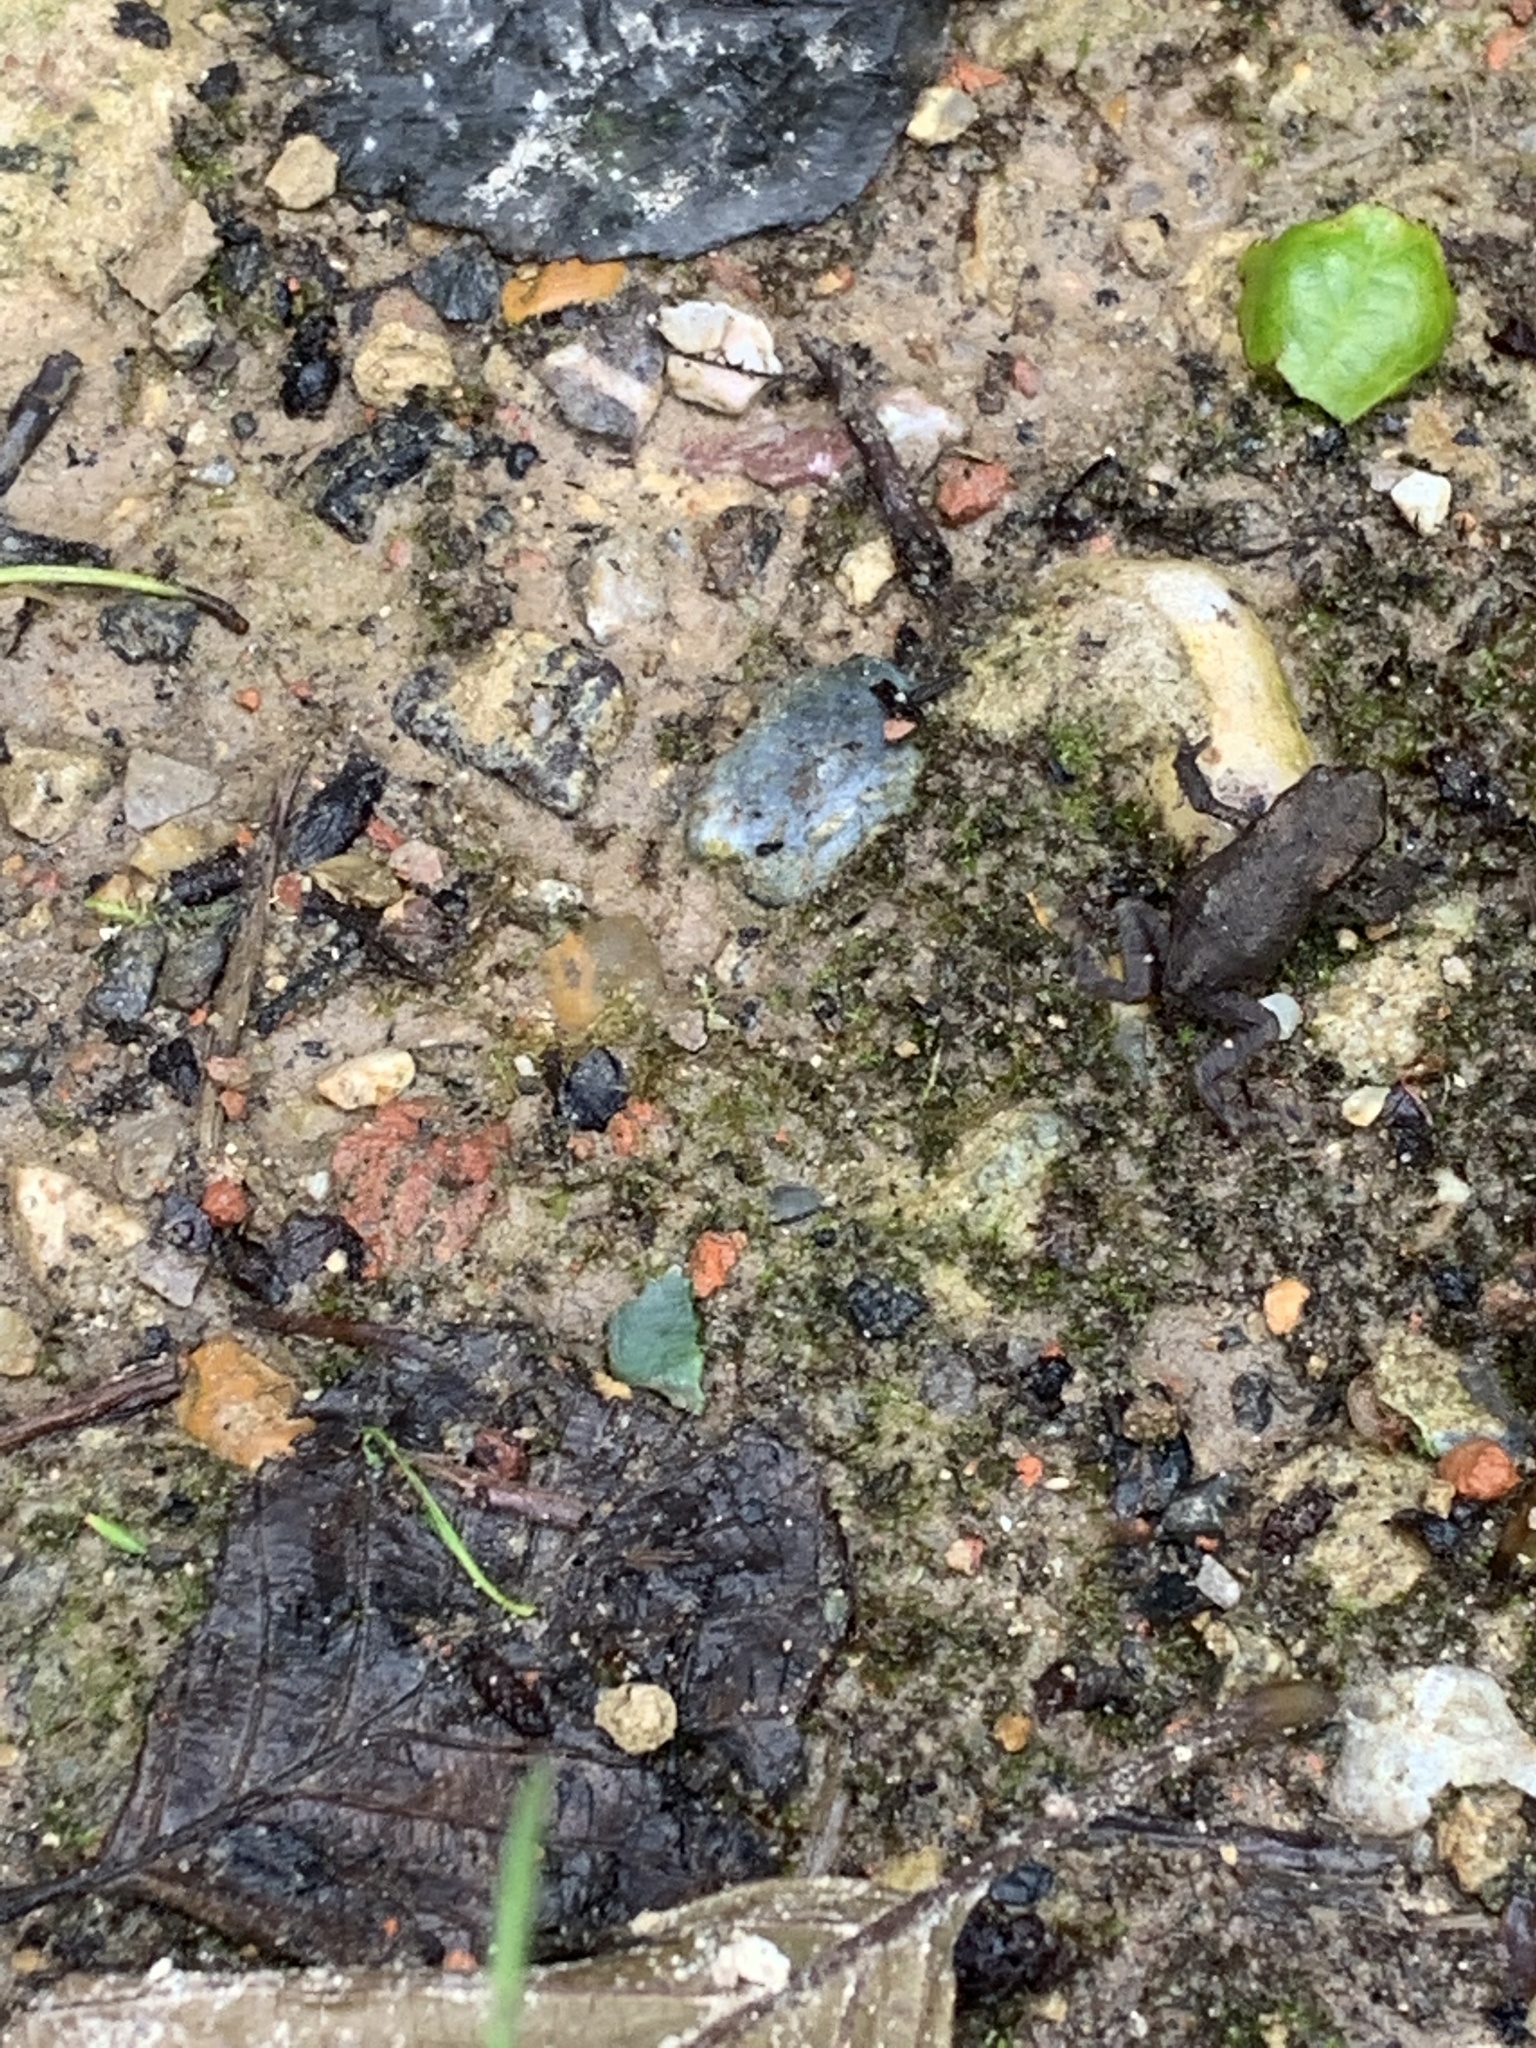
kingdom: Animalia
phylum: Chordata
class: Amphibia
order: Anura
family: Bufonidae
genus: Bufo
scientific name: Bufo bufo
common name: Common toad
